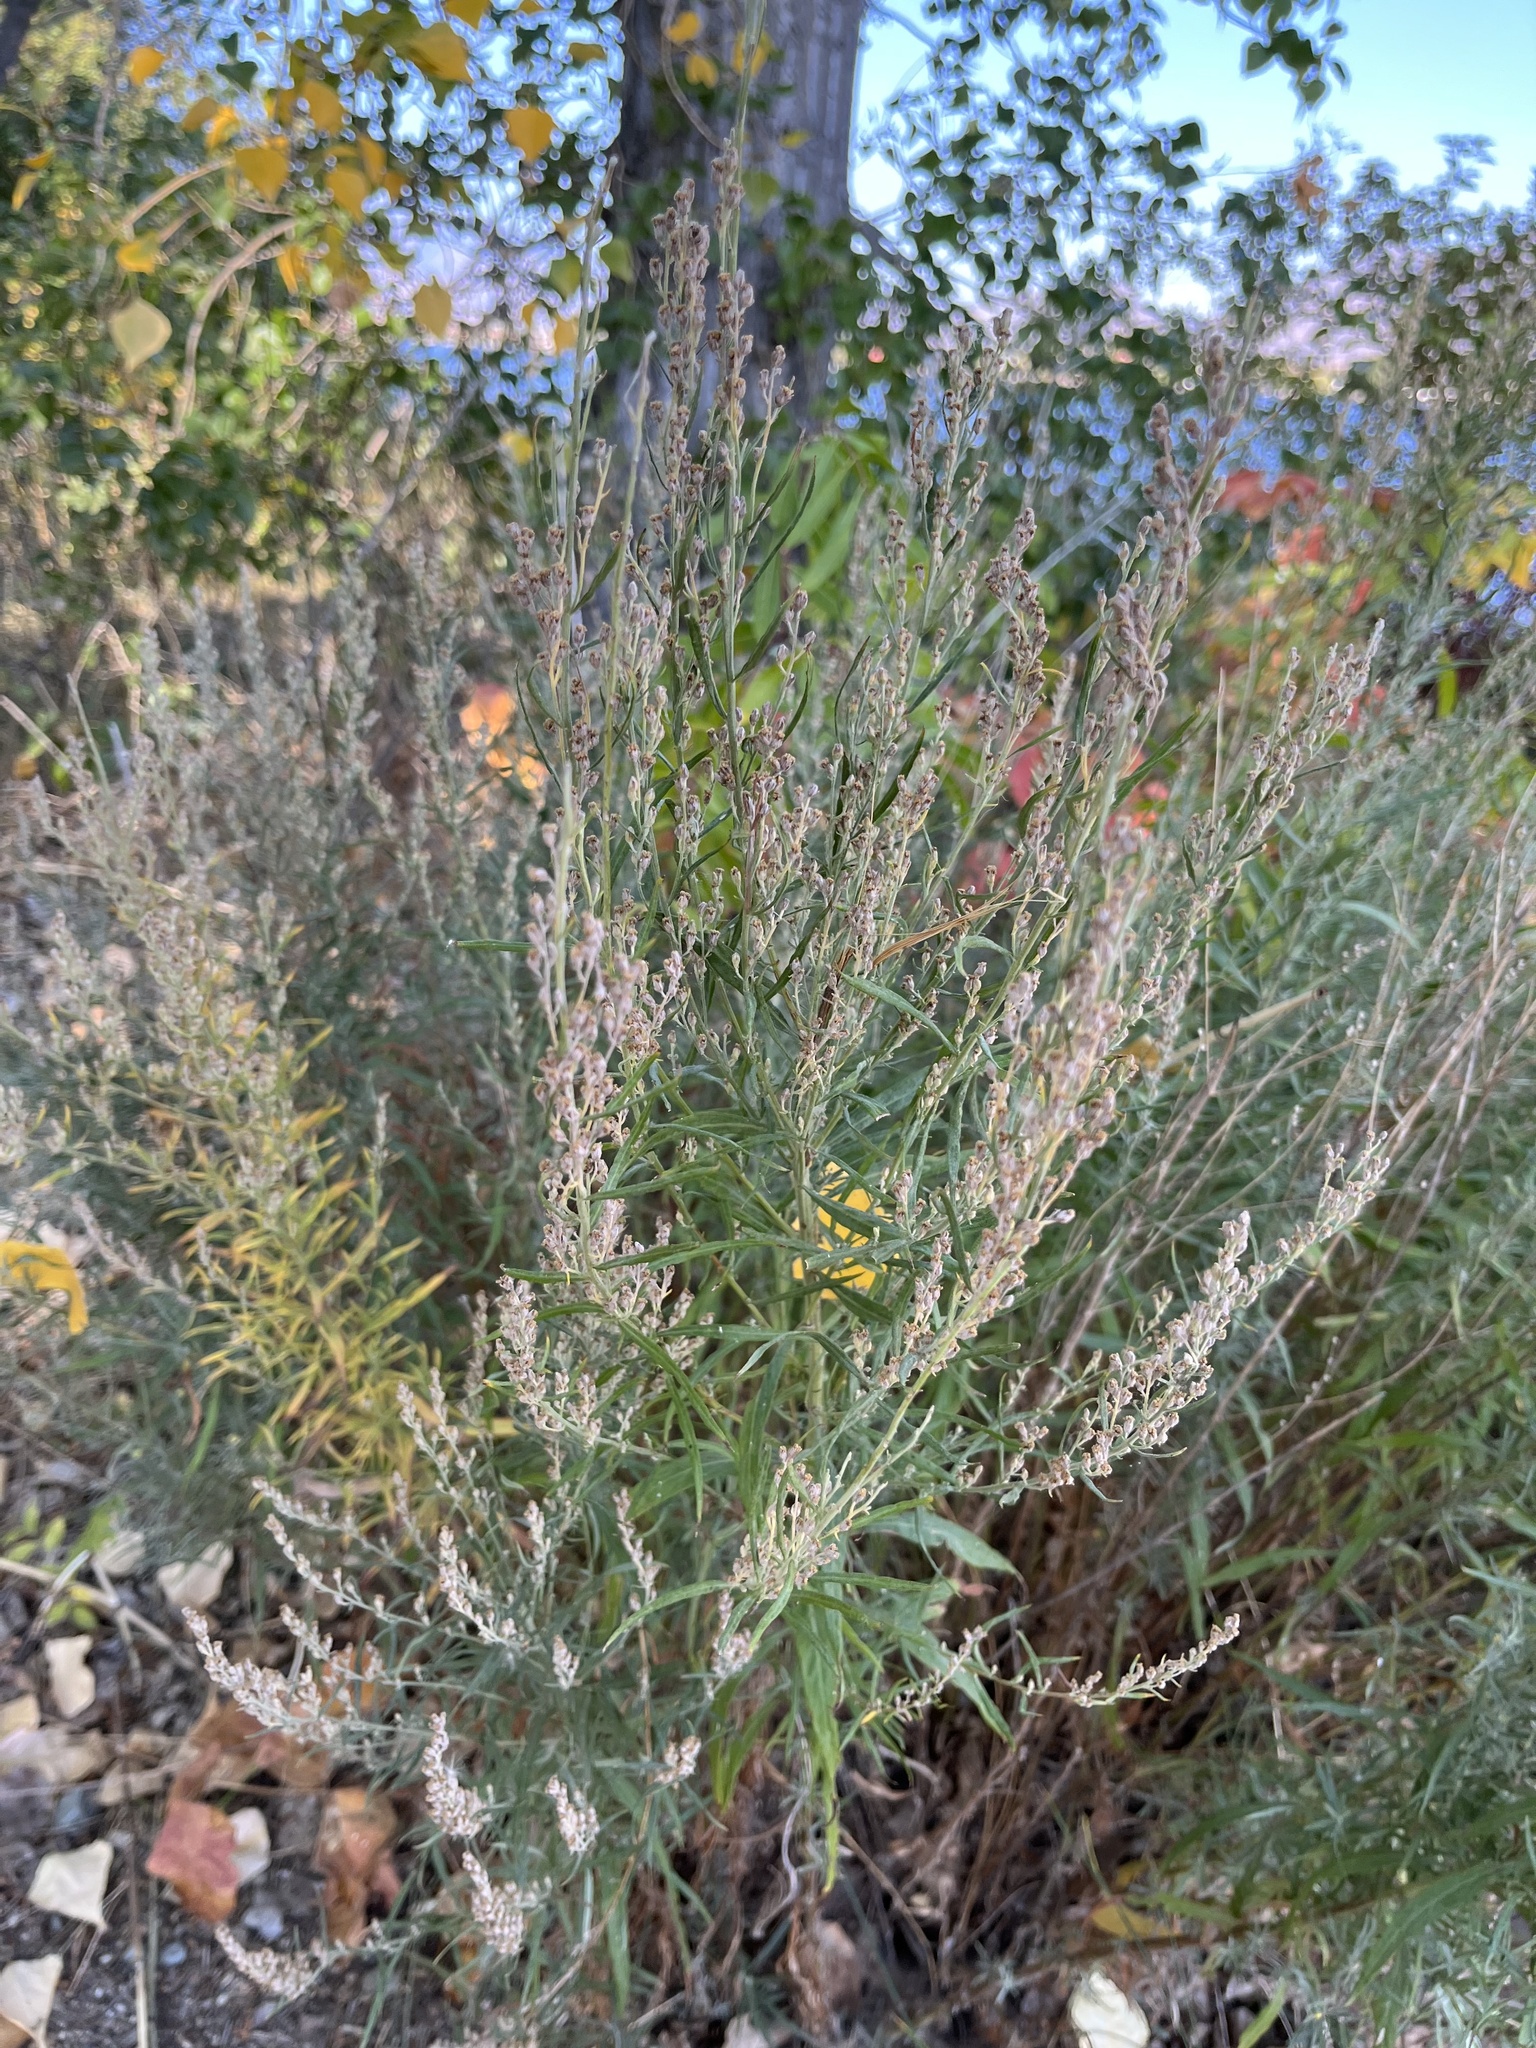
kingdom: Plantae
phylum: Tracheophyta
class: Magnoliopsida
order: Asterales
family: Asteraceae
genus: Artemisia
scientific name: Artemisia ludoviciana
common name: Western mugwort
